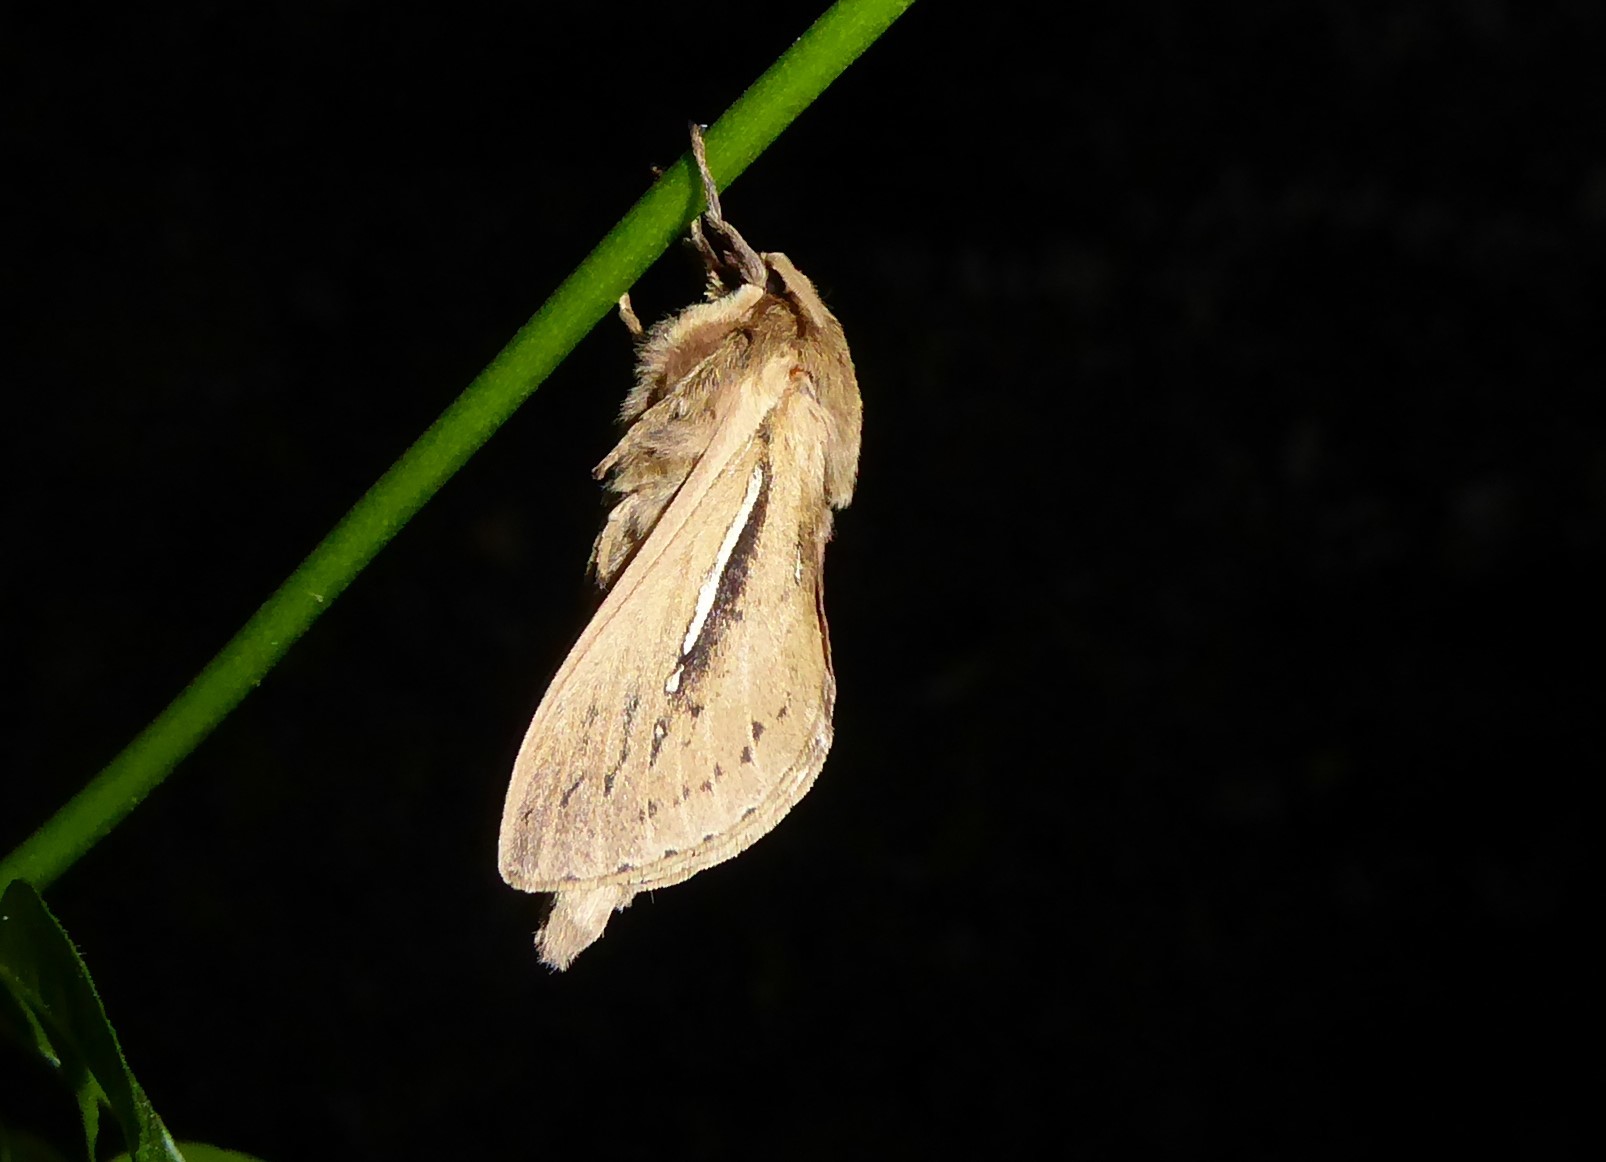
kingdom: Animalia
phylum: Arthropoda
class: Insecta
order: Lepidoptera
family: Hepialidae
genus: Wiseana
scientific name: Wiseana umbraculatus
